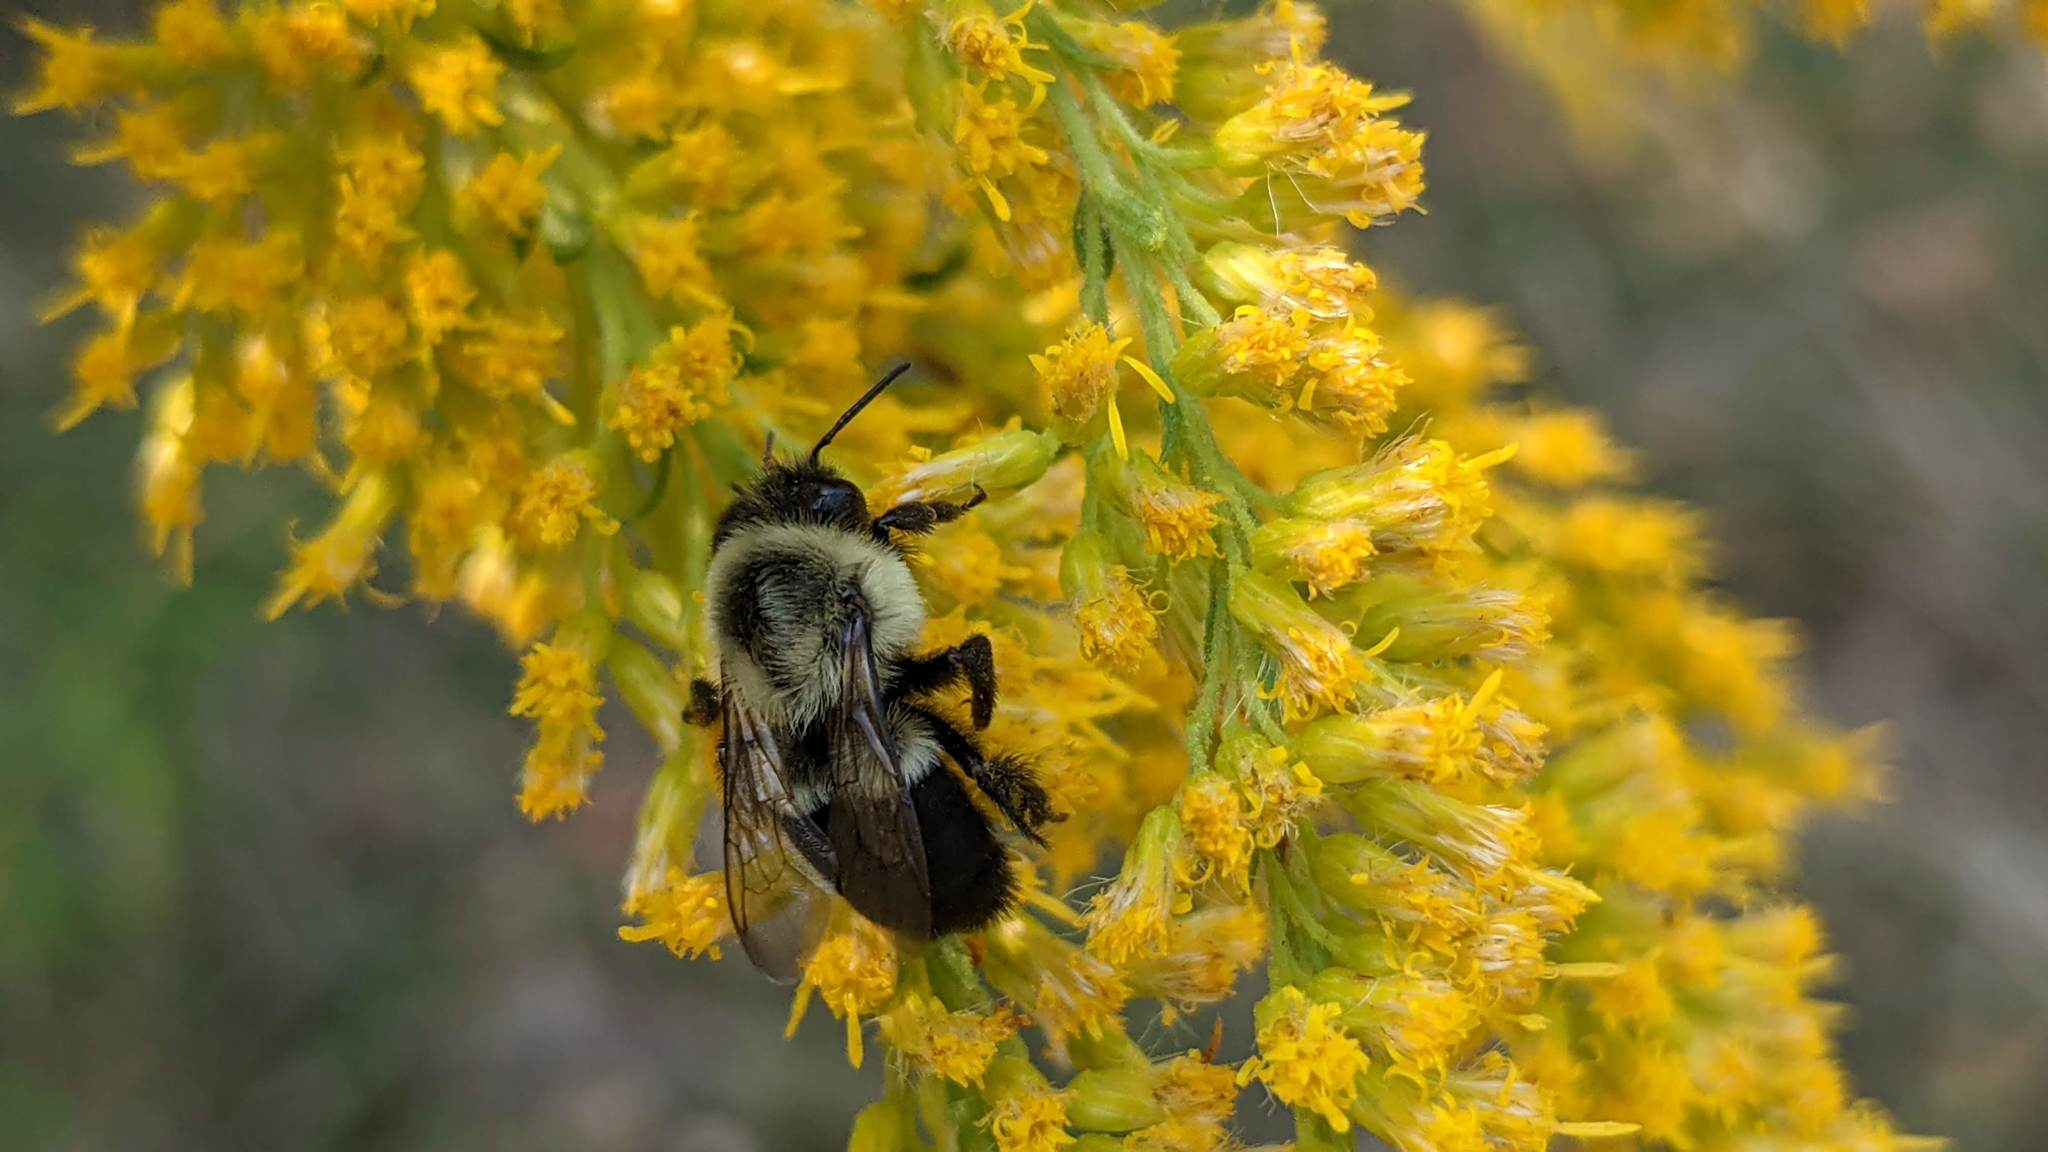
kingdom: Animalia
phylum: Arthropoda
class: Insecta
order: Hymenoptera
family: Apidae
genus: Bombus
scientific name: Bombus impatiens
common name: Common eastern bumble bee
